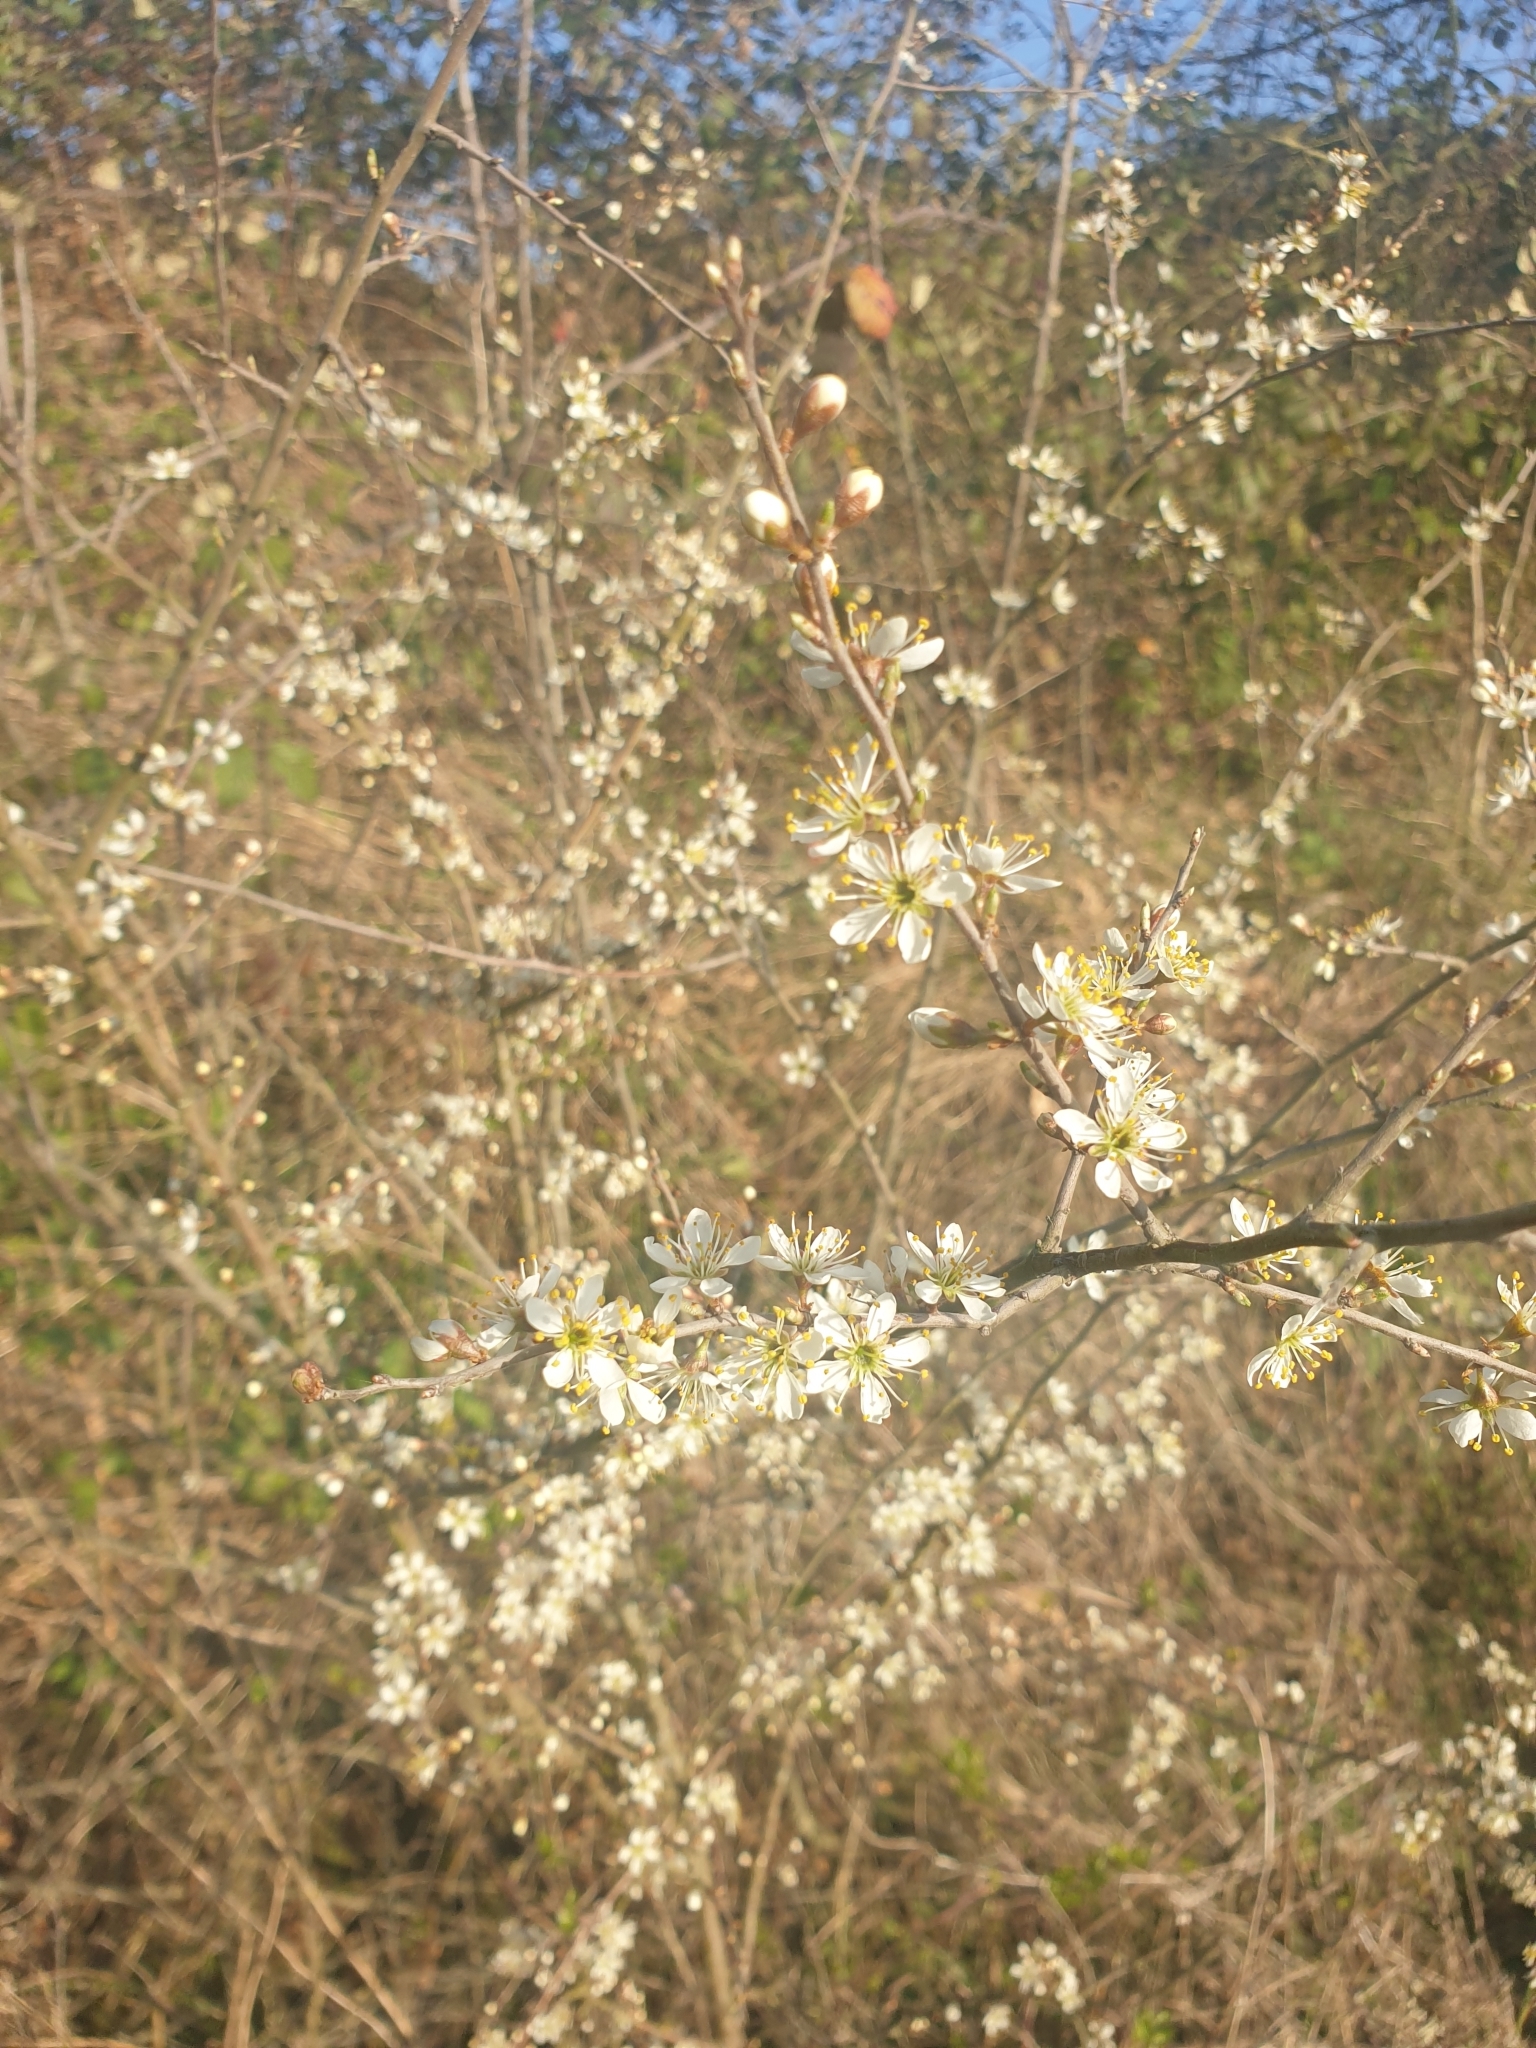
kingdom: Plantae
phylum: Tracheophyta
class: Magnoliopsida
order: Rosales
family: Rosaceae
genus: Prunus
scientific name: Prunus spinosa
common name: Blackthorn
